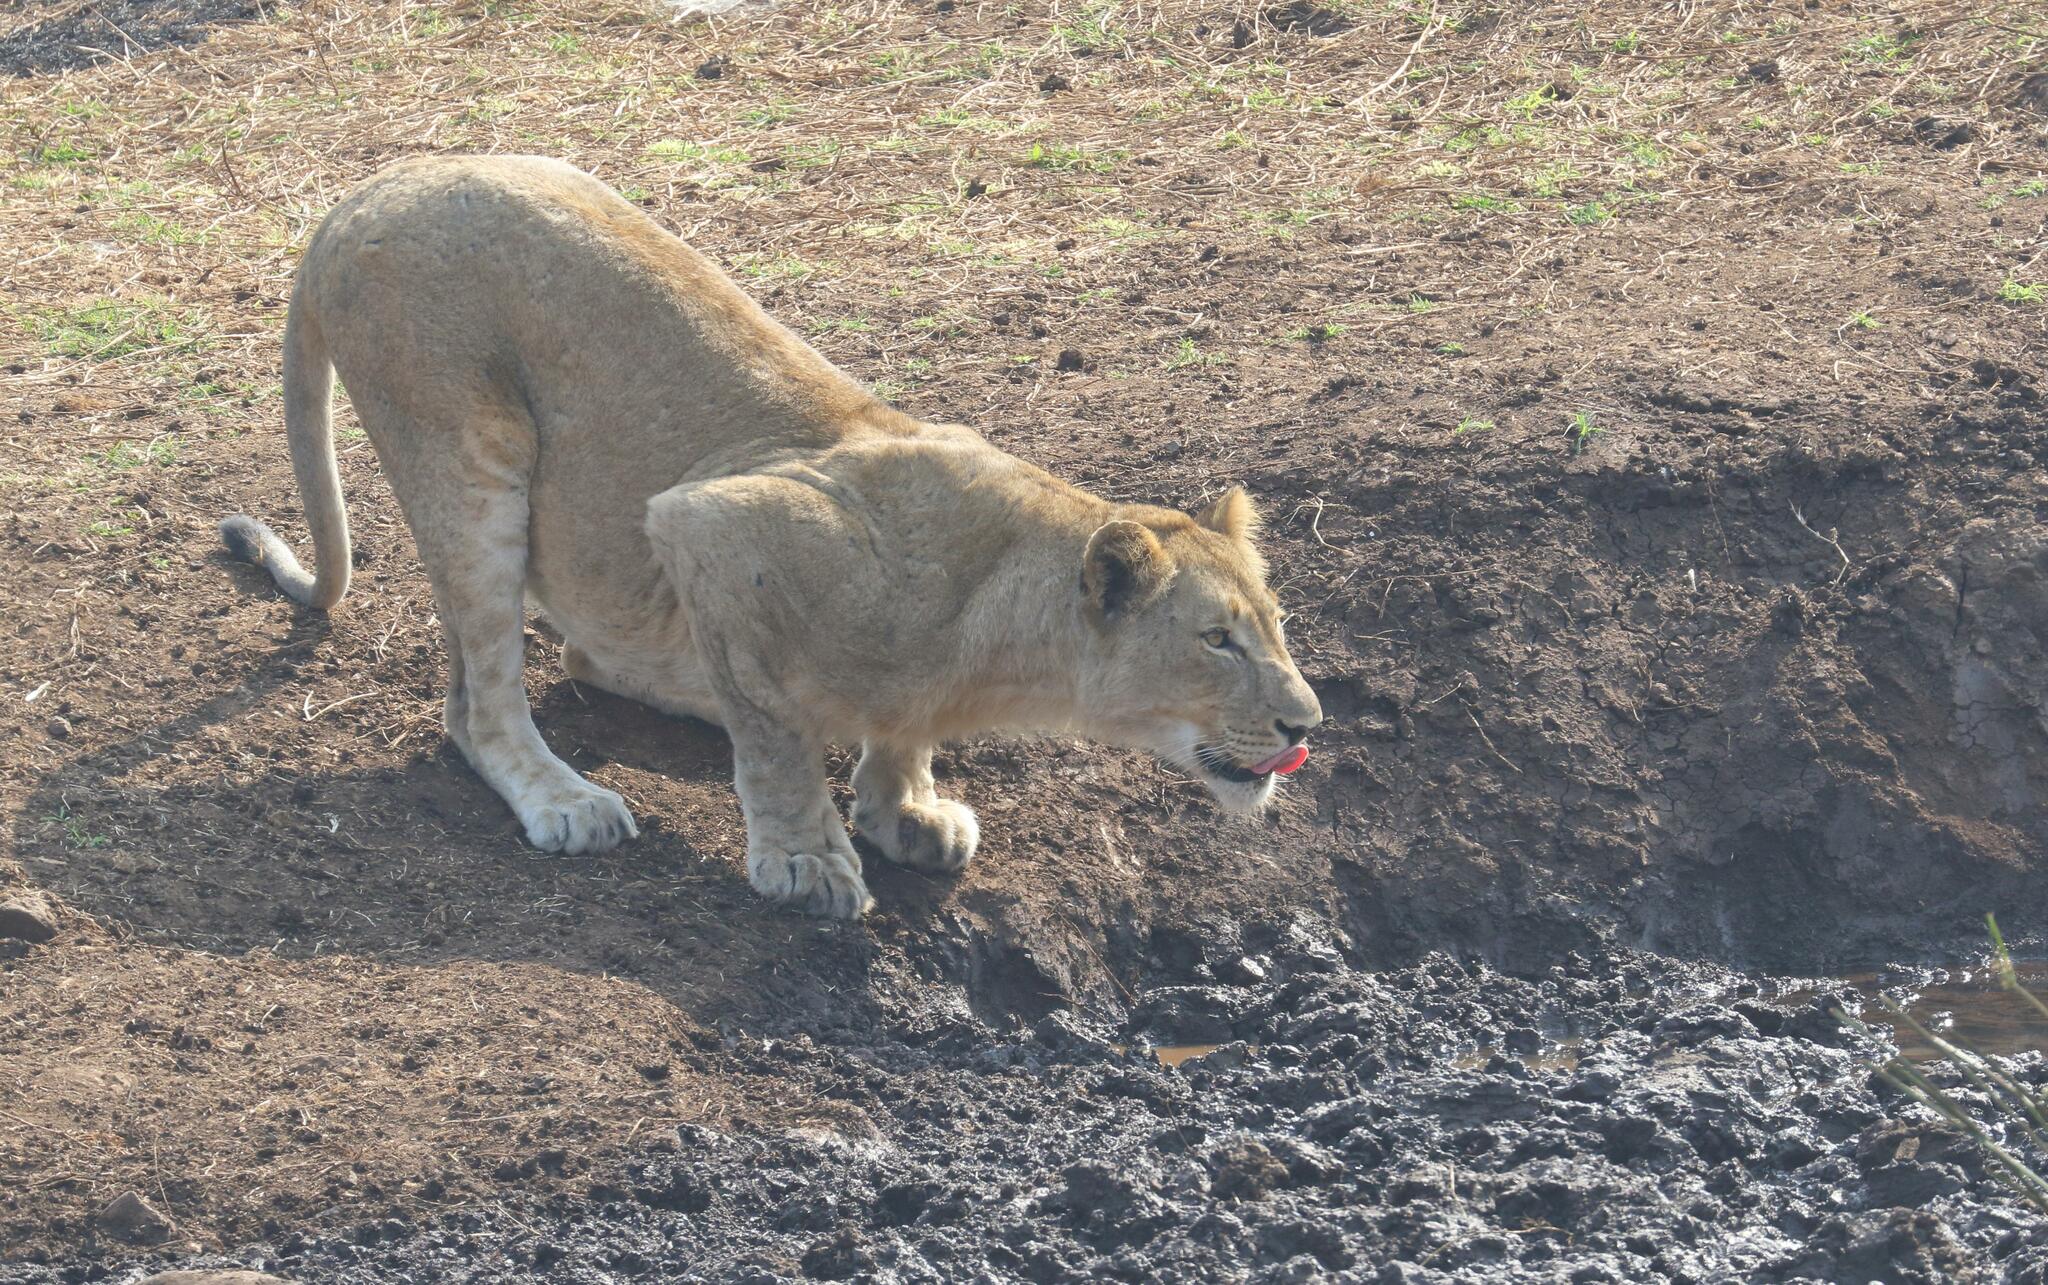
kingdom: Animalia
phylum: Chordata
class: Mammalia
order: Carnivora
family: Felidae
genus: Panthera
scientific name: Panthera leo
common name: Lion
